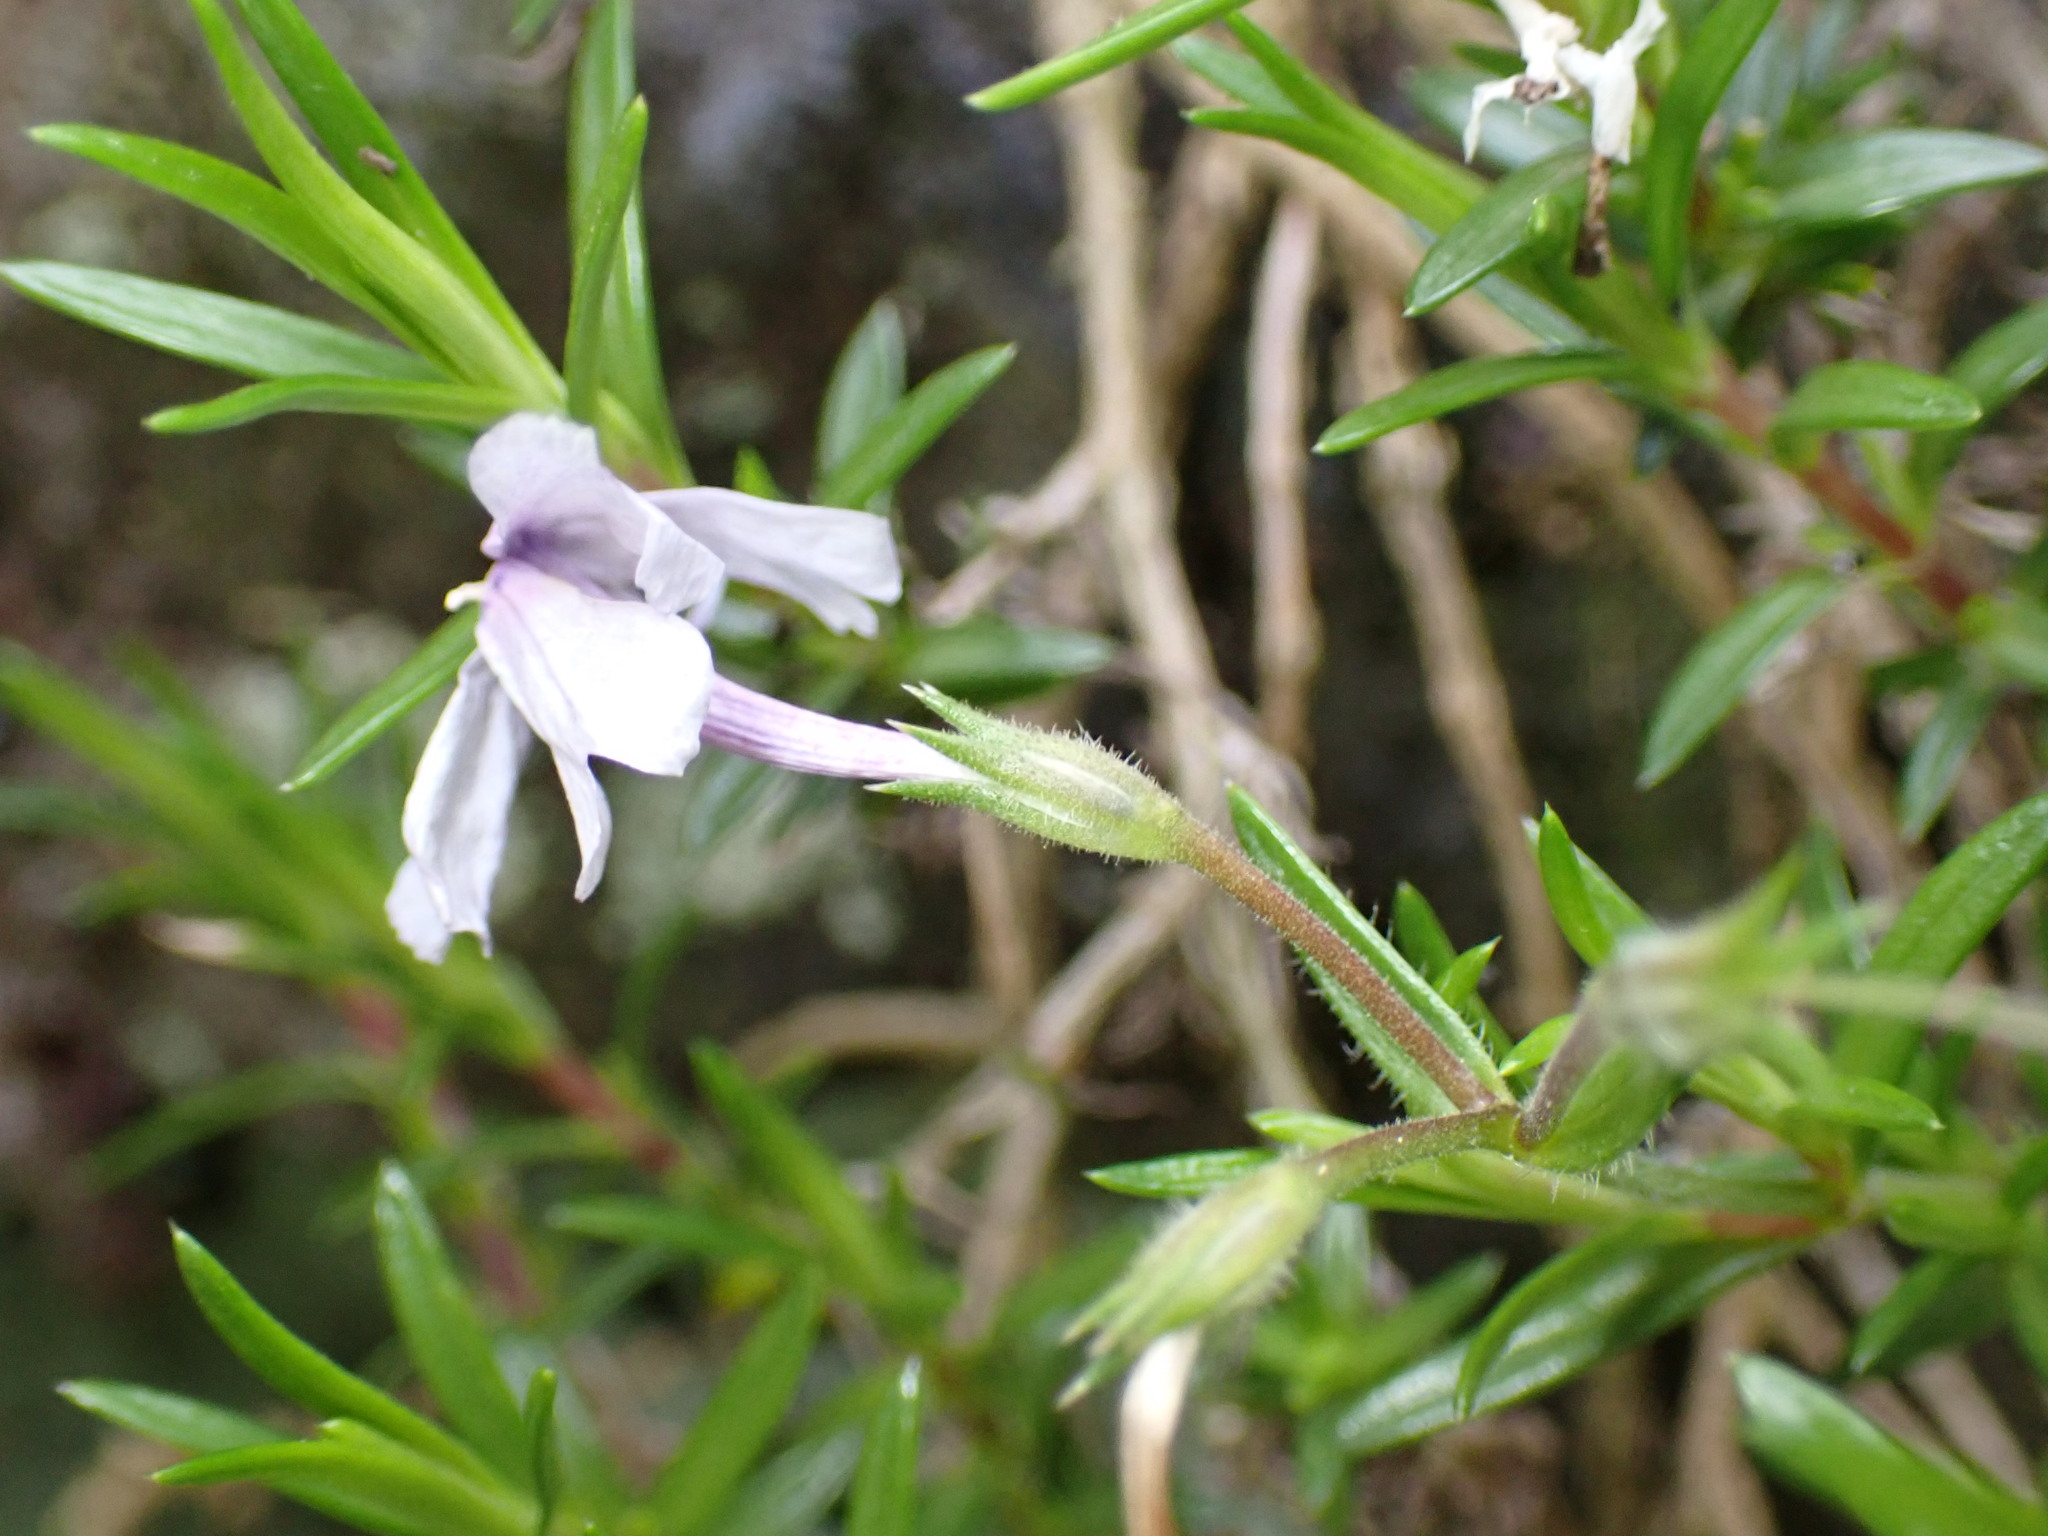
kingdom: Plantae
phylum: Tracheophyta
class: Magnoliopsida
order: Ericales
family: Polemoniaceae
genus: Phlox
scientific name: Phlox subulata
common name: Moss phlox
